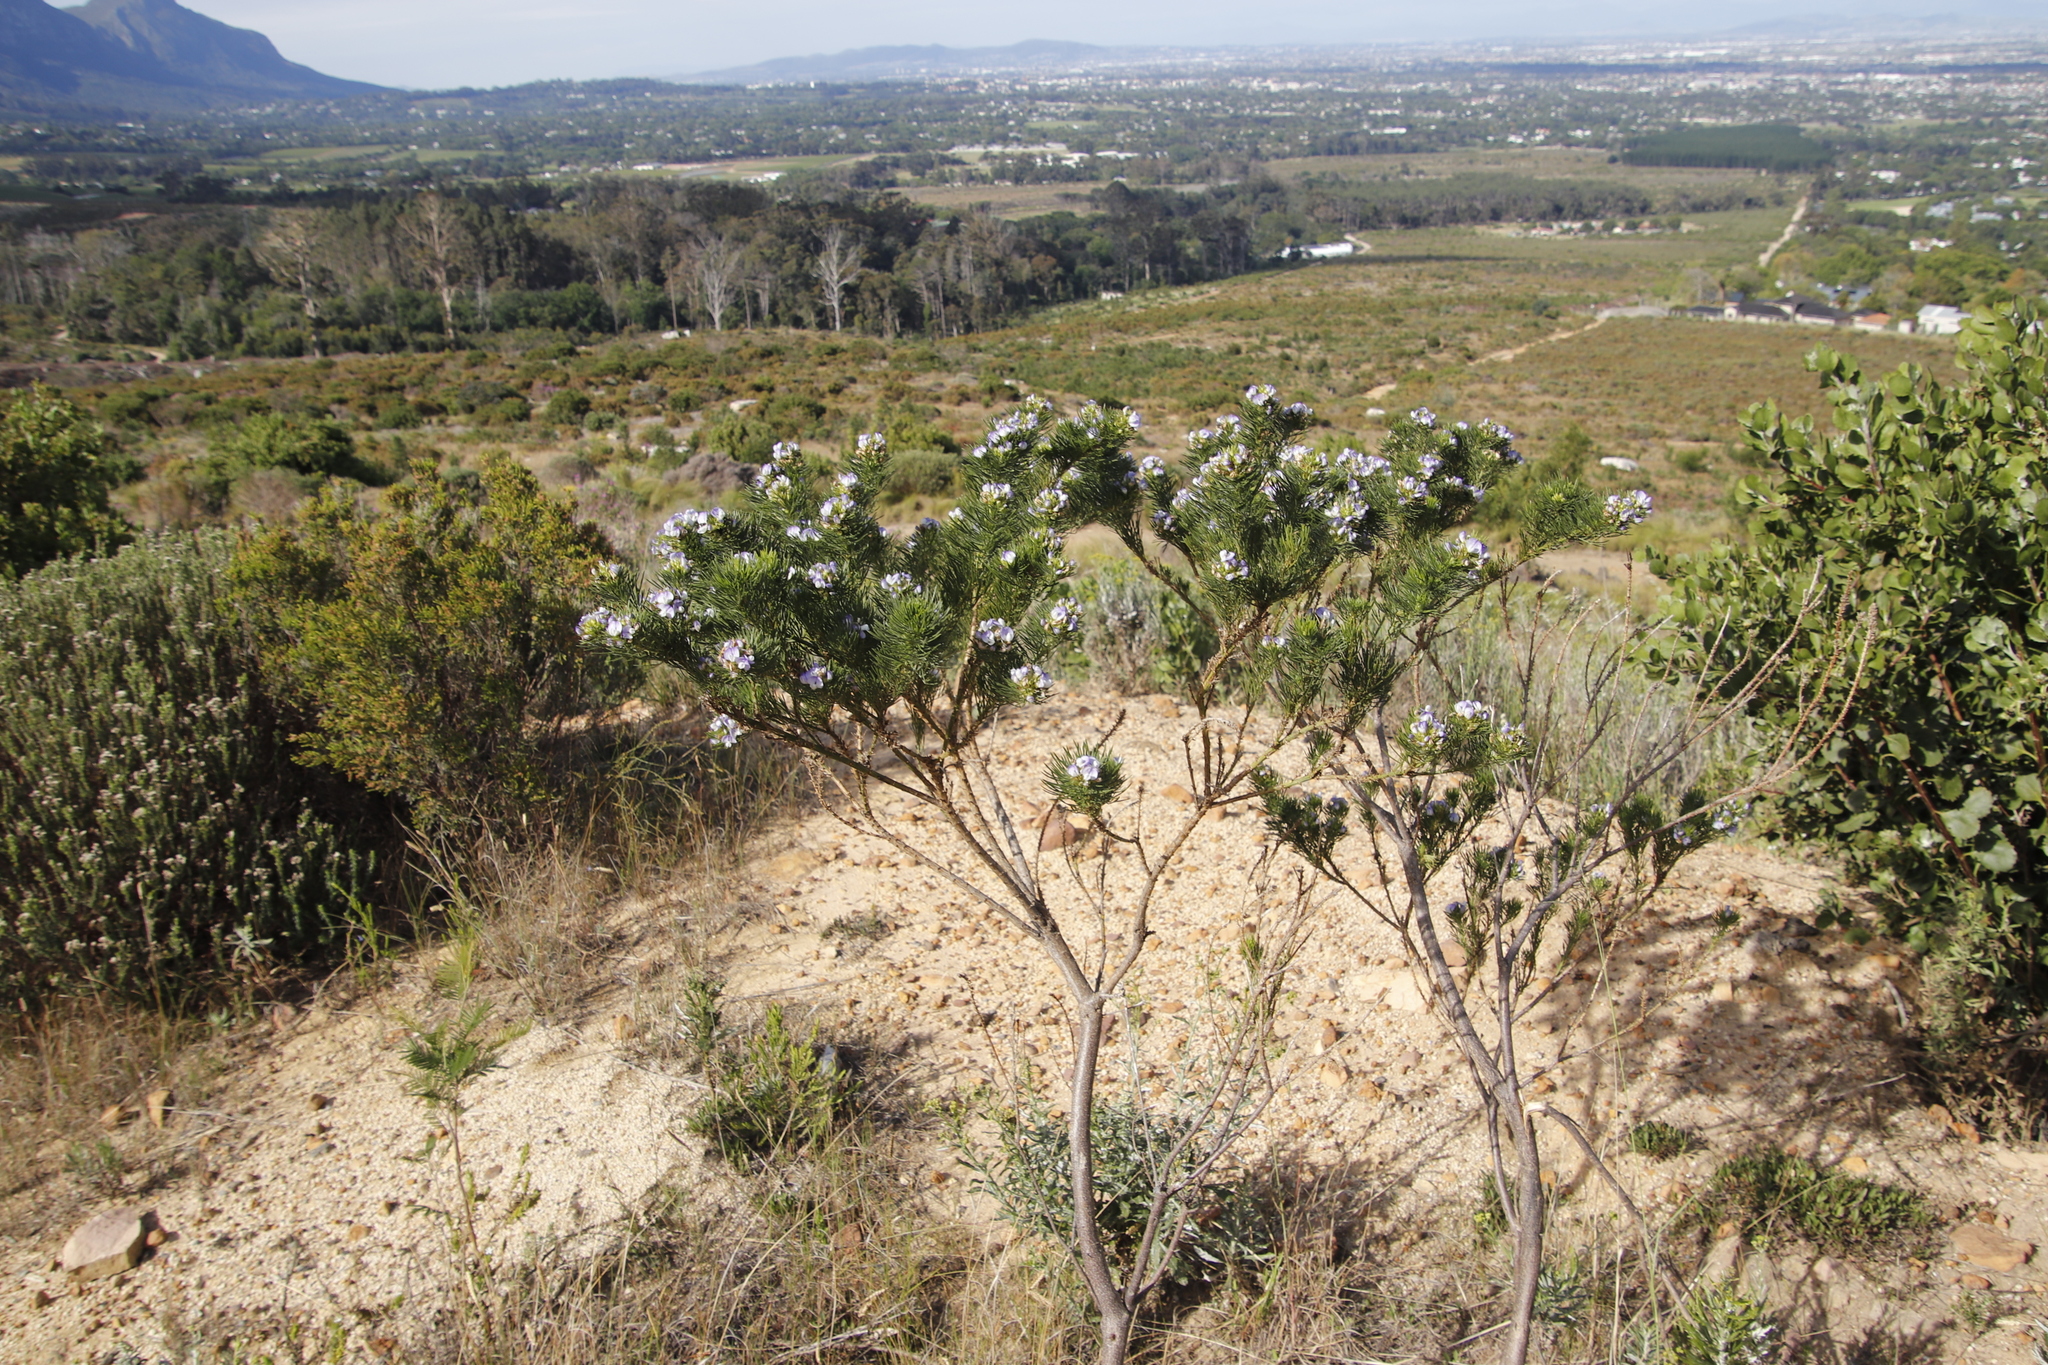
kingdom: Plantae
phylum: Tracheophyta
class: Magnoliopsida
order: Fabales
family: Fabaceae
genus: Psoralea
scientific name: Psoralea pinnata
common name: African scurfpea
